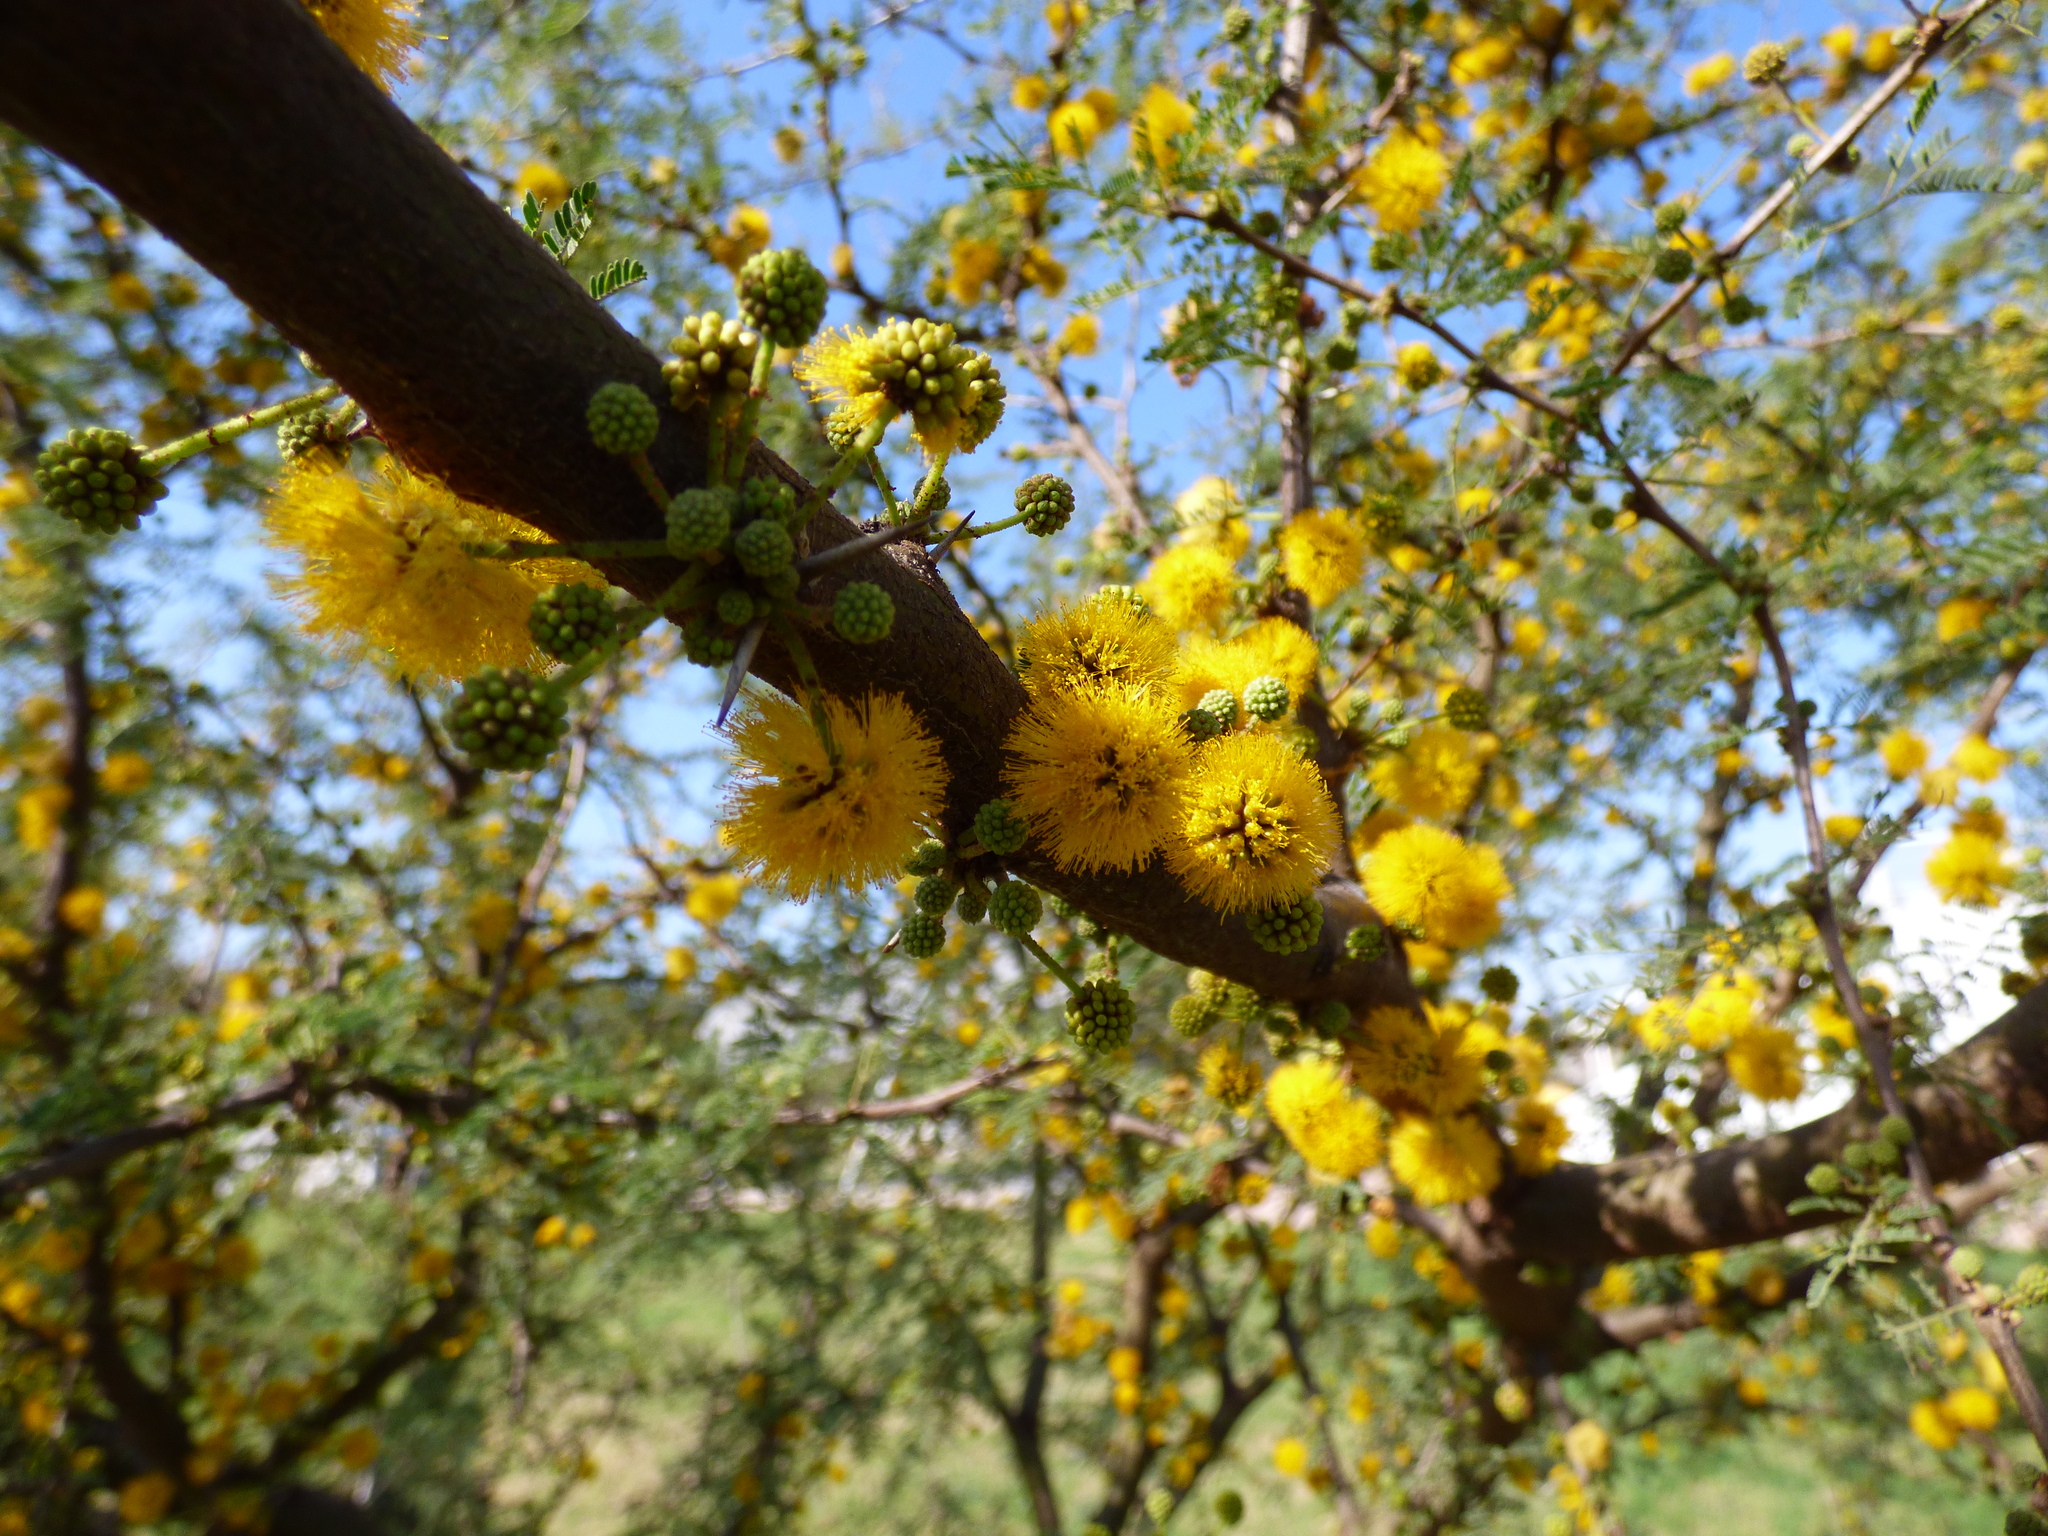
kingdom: Plantae
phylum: Tracheophyta
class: Magnoliopsida
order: Fabales
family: Fabaceae
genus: Vachellia
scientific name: Vachellia caven
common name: Roman cassie
